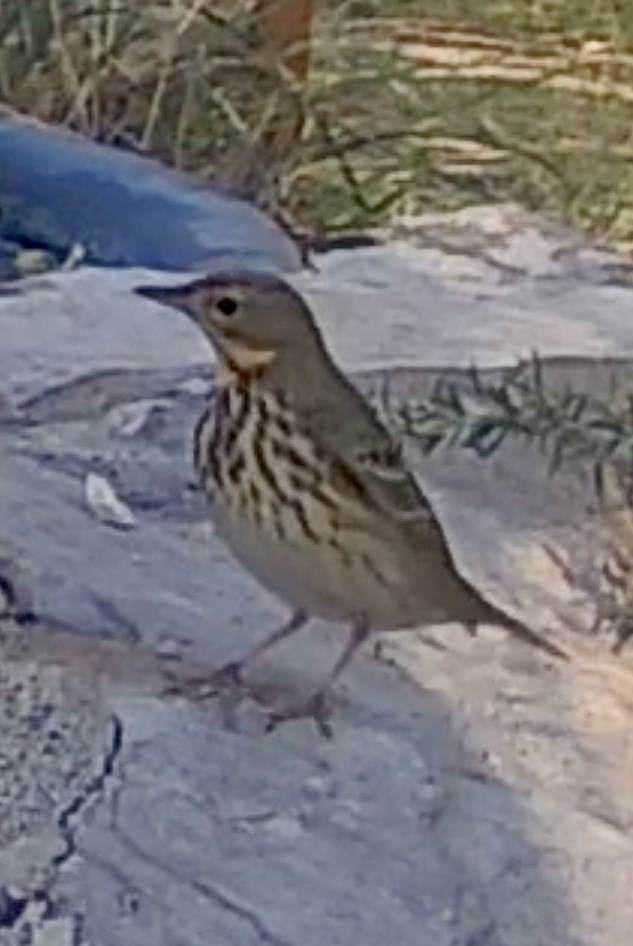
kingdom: Animalia
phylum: Chordata
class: Aves
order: Passeriformes
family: Motacillidae
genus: Anthus
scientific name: Anthus trivialis
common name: Tree pipit
